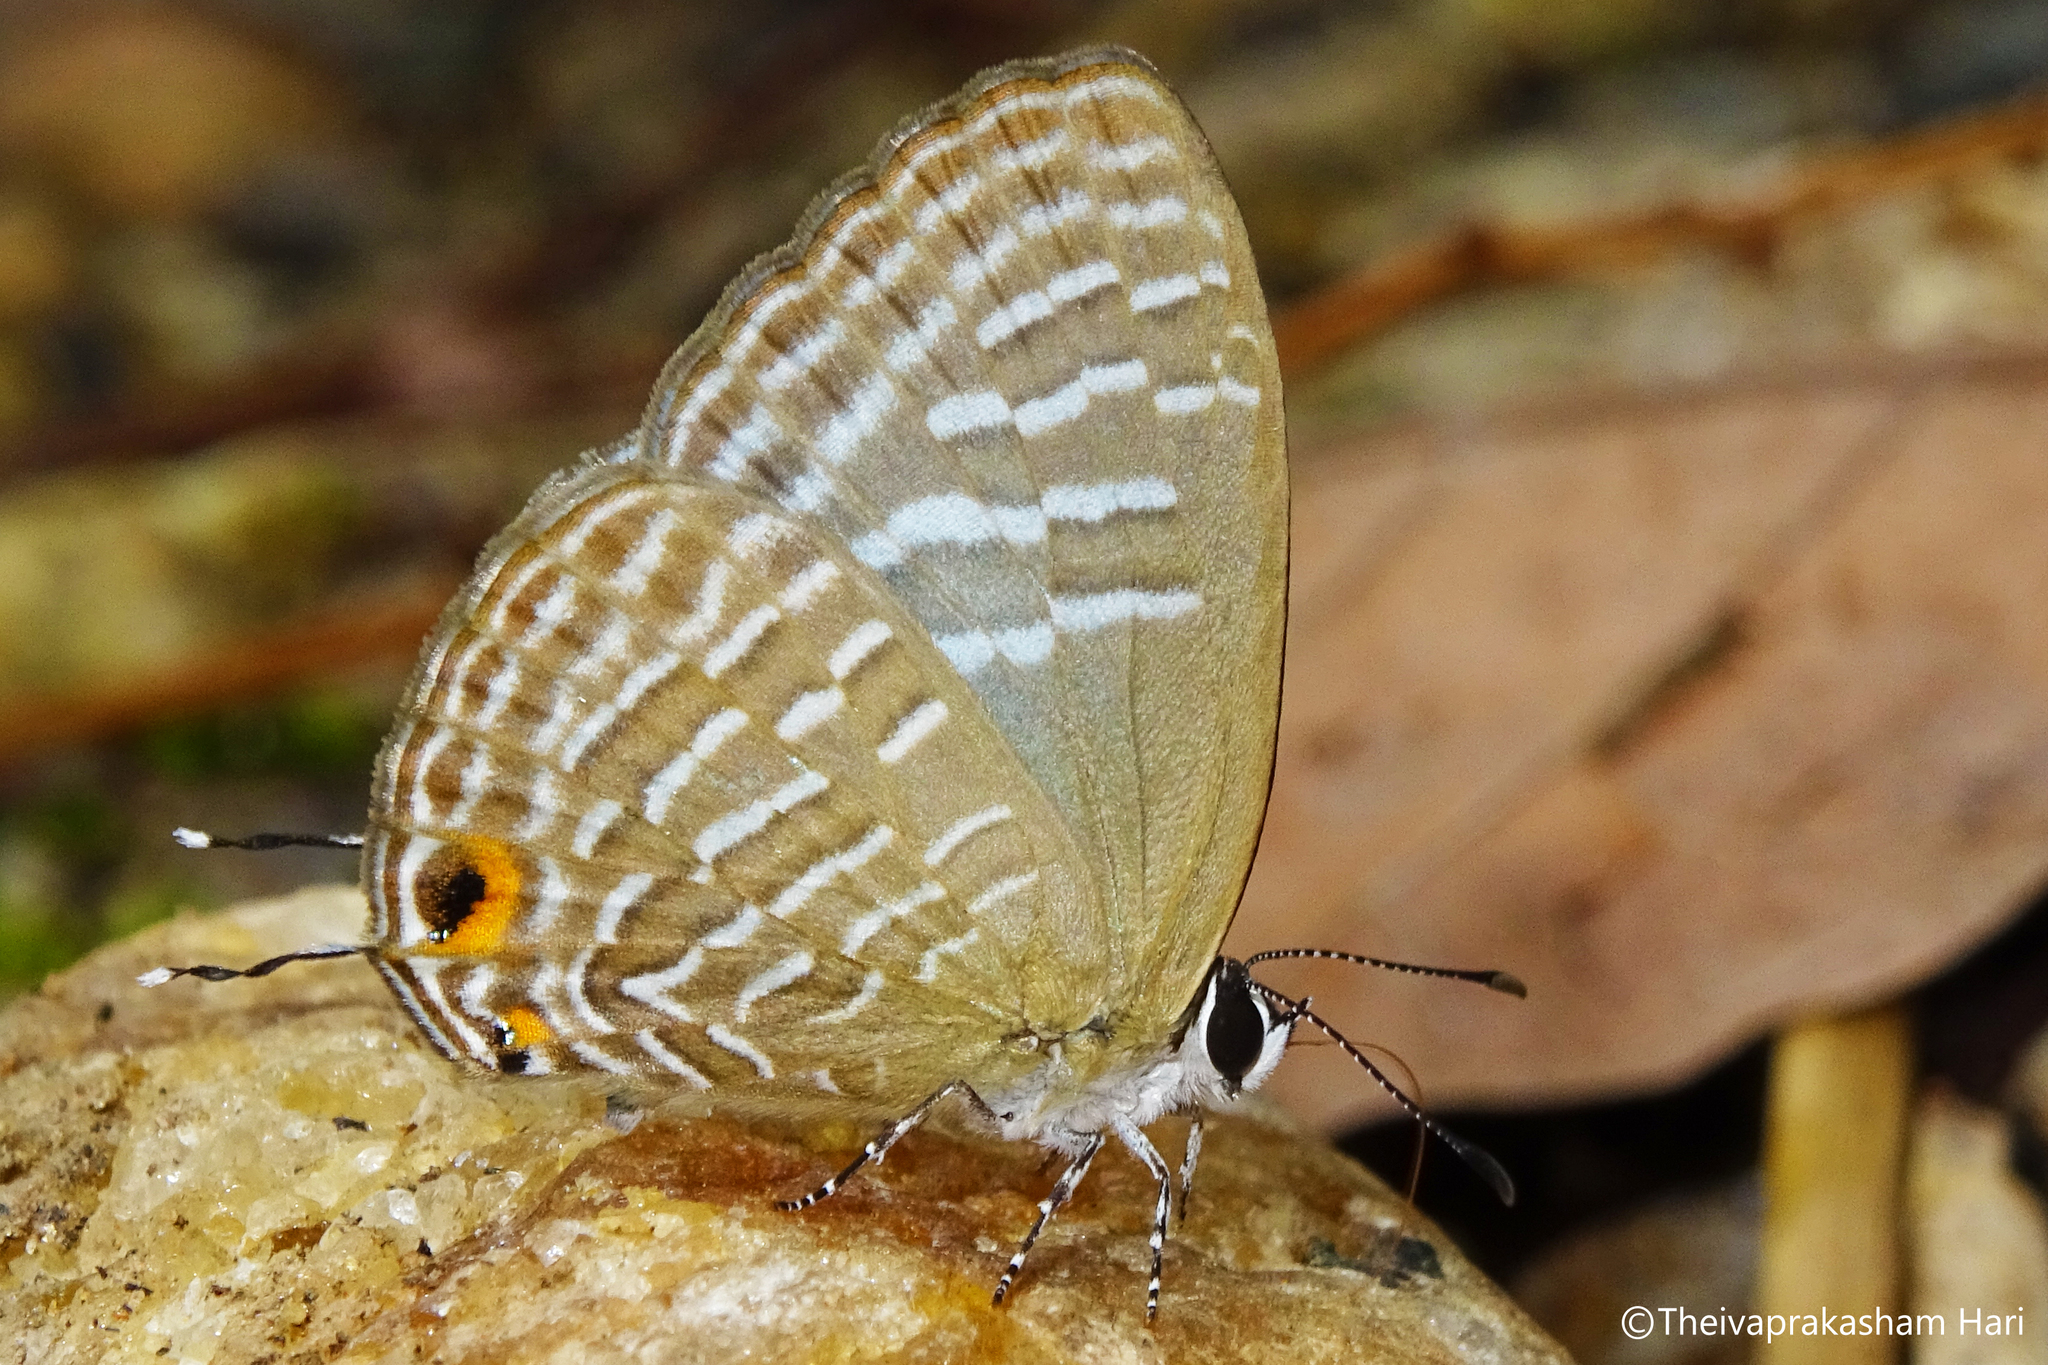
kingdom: Animalia
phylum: Arthropoda
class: Insecta
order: Lepidoptera
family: Lycaenidae
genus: Jamides
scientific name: Jamides alecto
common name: Metallic cerulean
